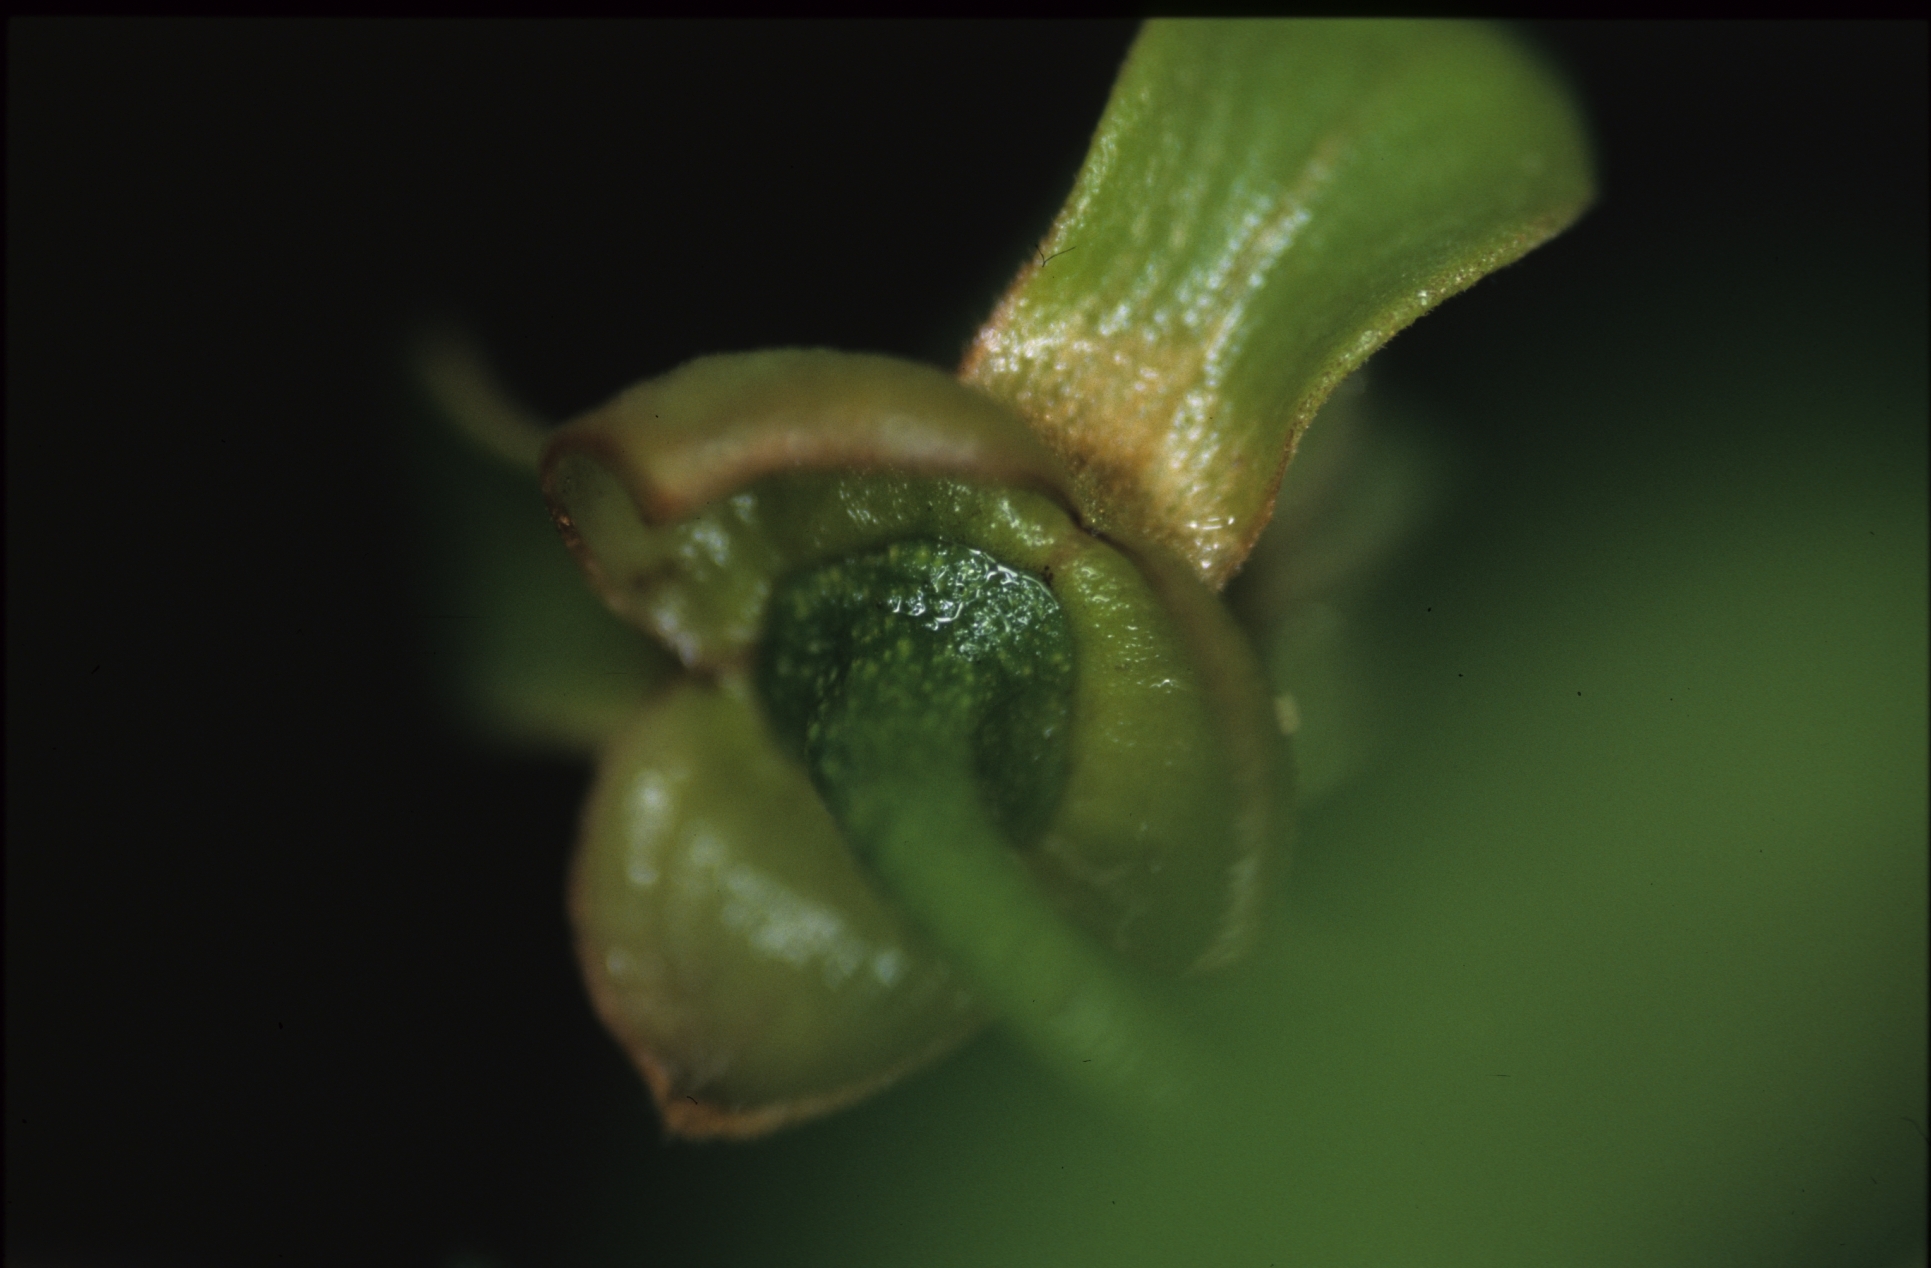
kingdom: Plantae
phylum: Tracheophyta
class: Magnoliopsida
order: Magnoliales
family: Annonaceae
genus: Guatteria
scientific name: Guatteria punctata
